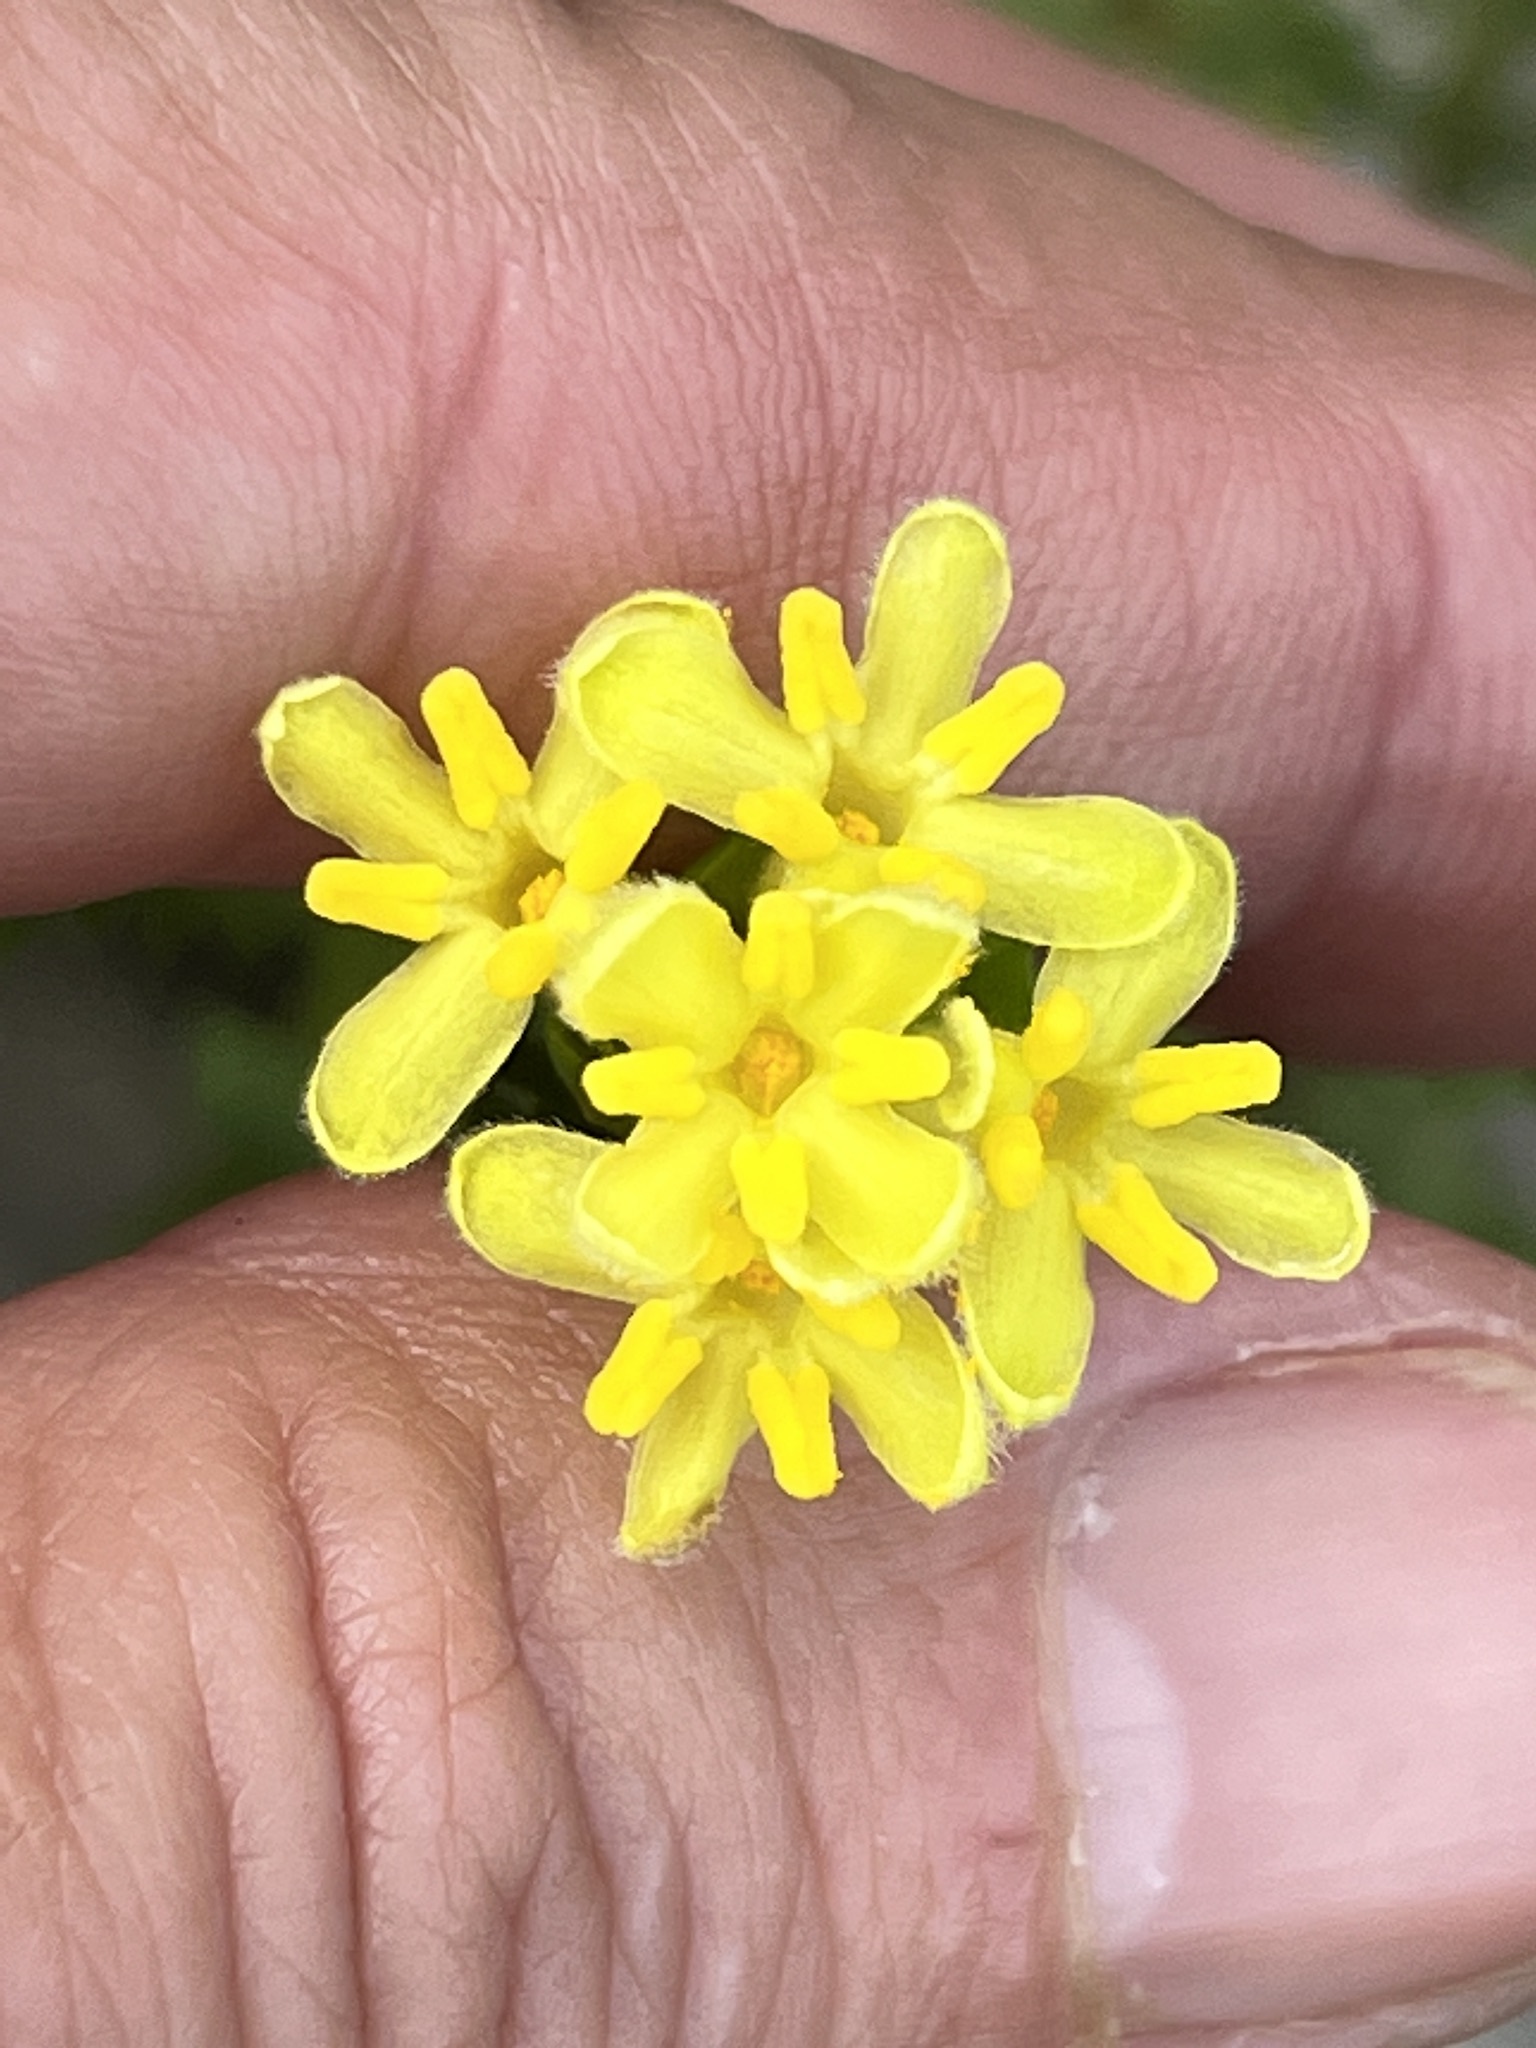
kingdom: Plantae
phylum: Tracheophyta
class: Magnoliopsida
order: Malvales
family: Thymelaeaceae
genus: Gnidia
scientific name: Gnidia oppositifolia
